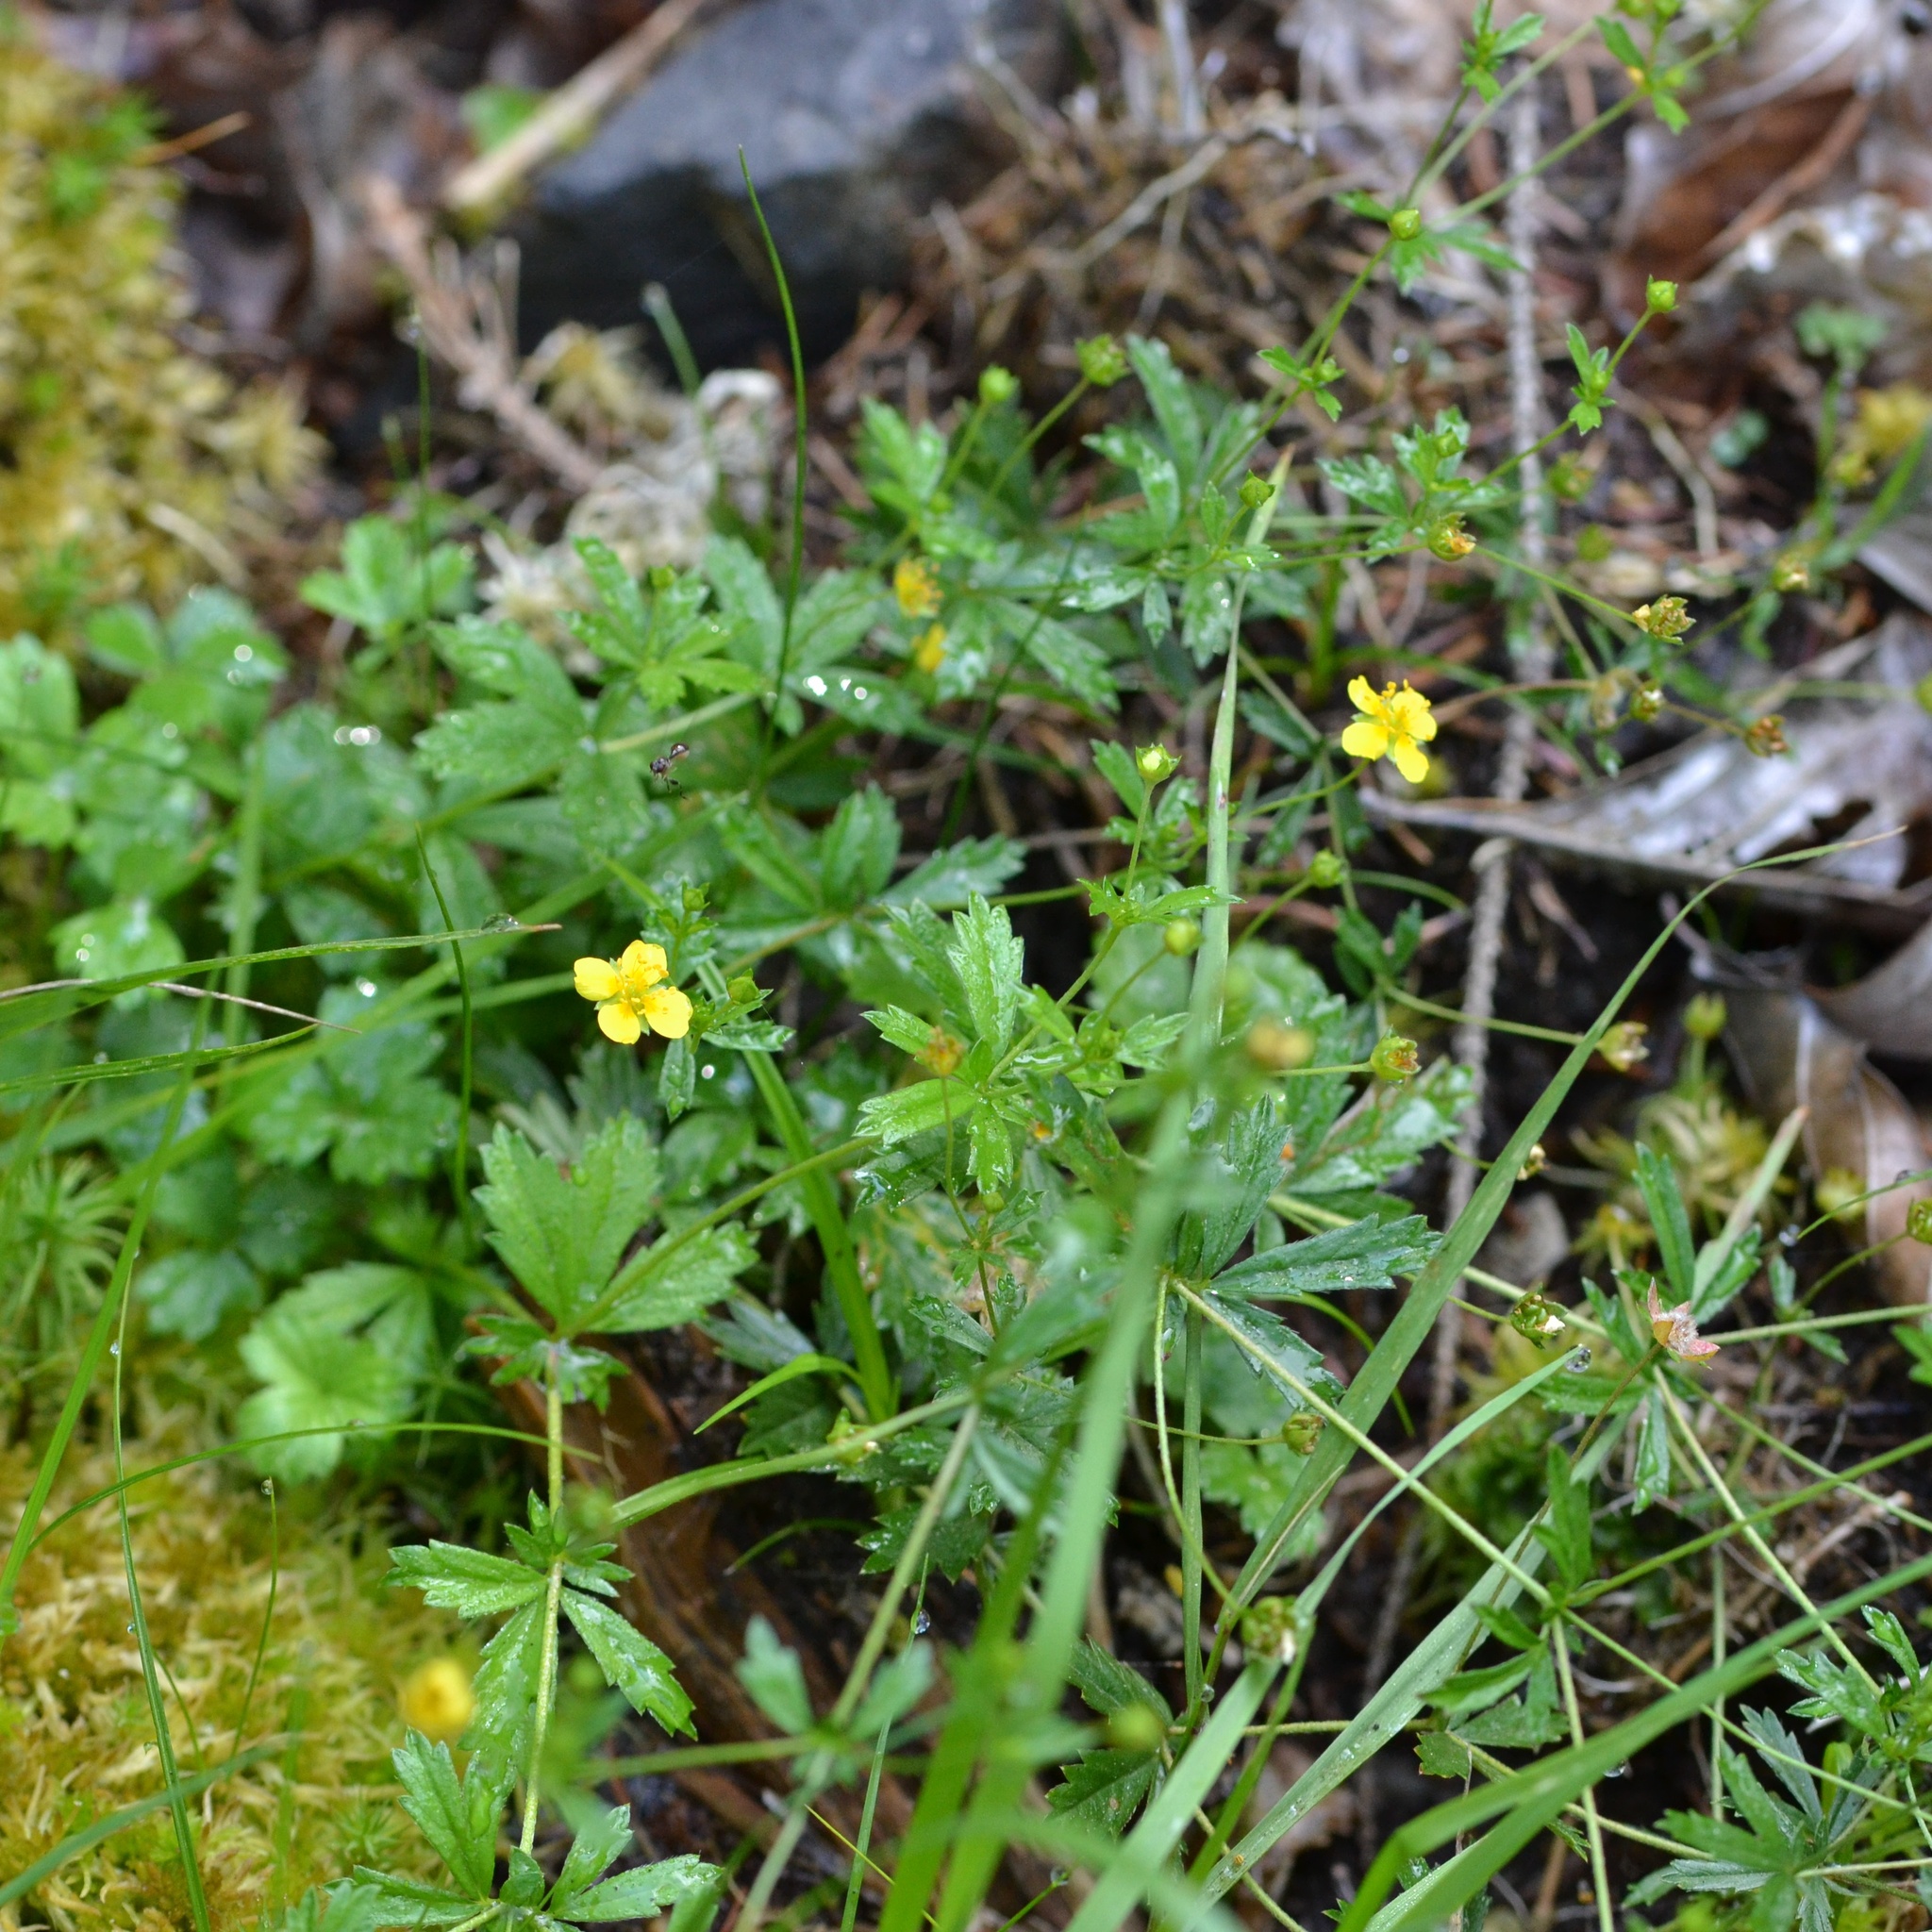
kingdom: Plantae
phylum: Tracheophyta
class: Magnoliopsida
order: Rosales
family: Rosaceae
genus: Potentilla
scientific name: Potentilla erecta
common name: Tormentil
